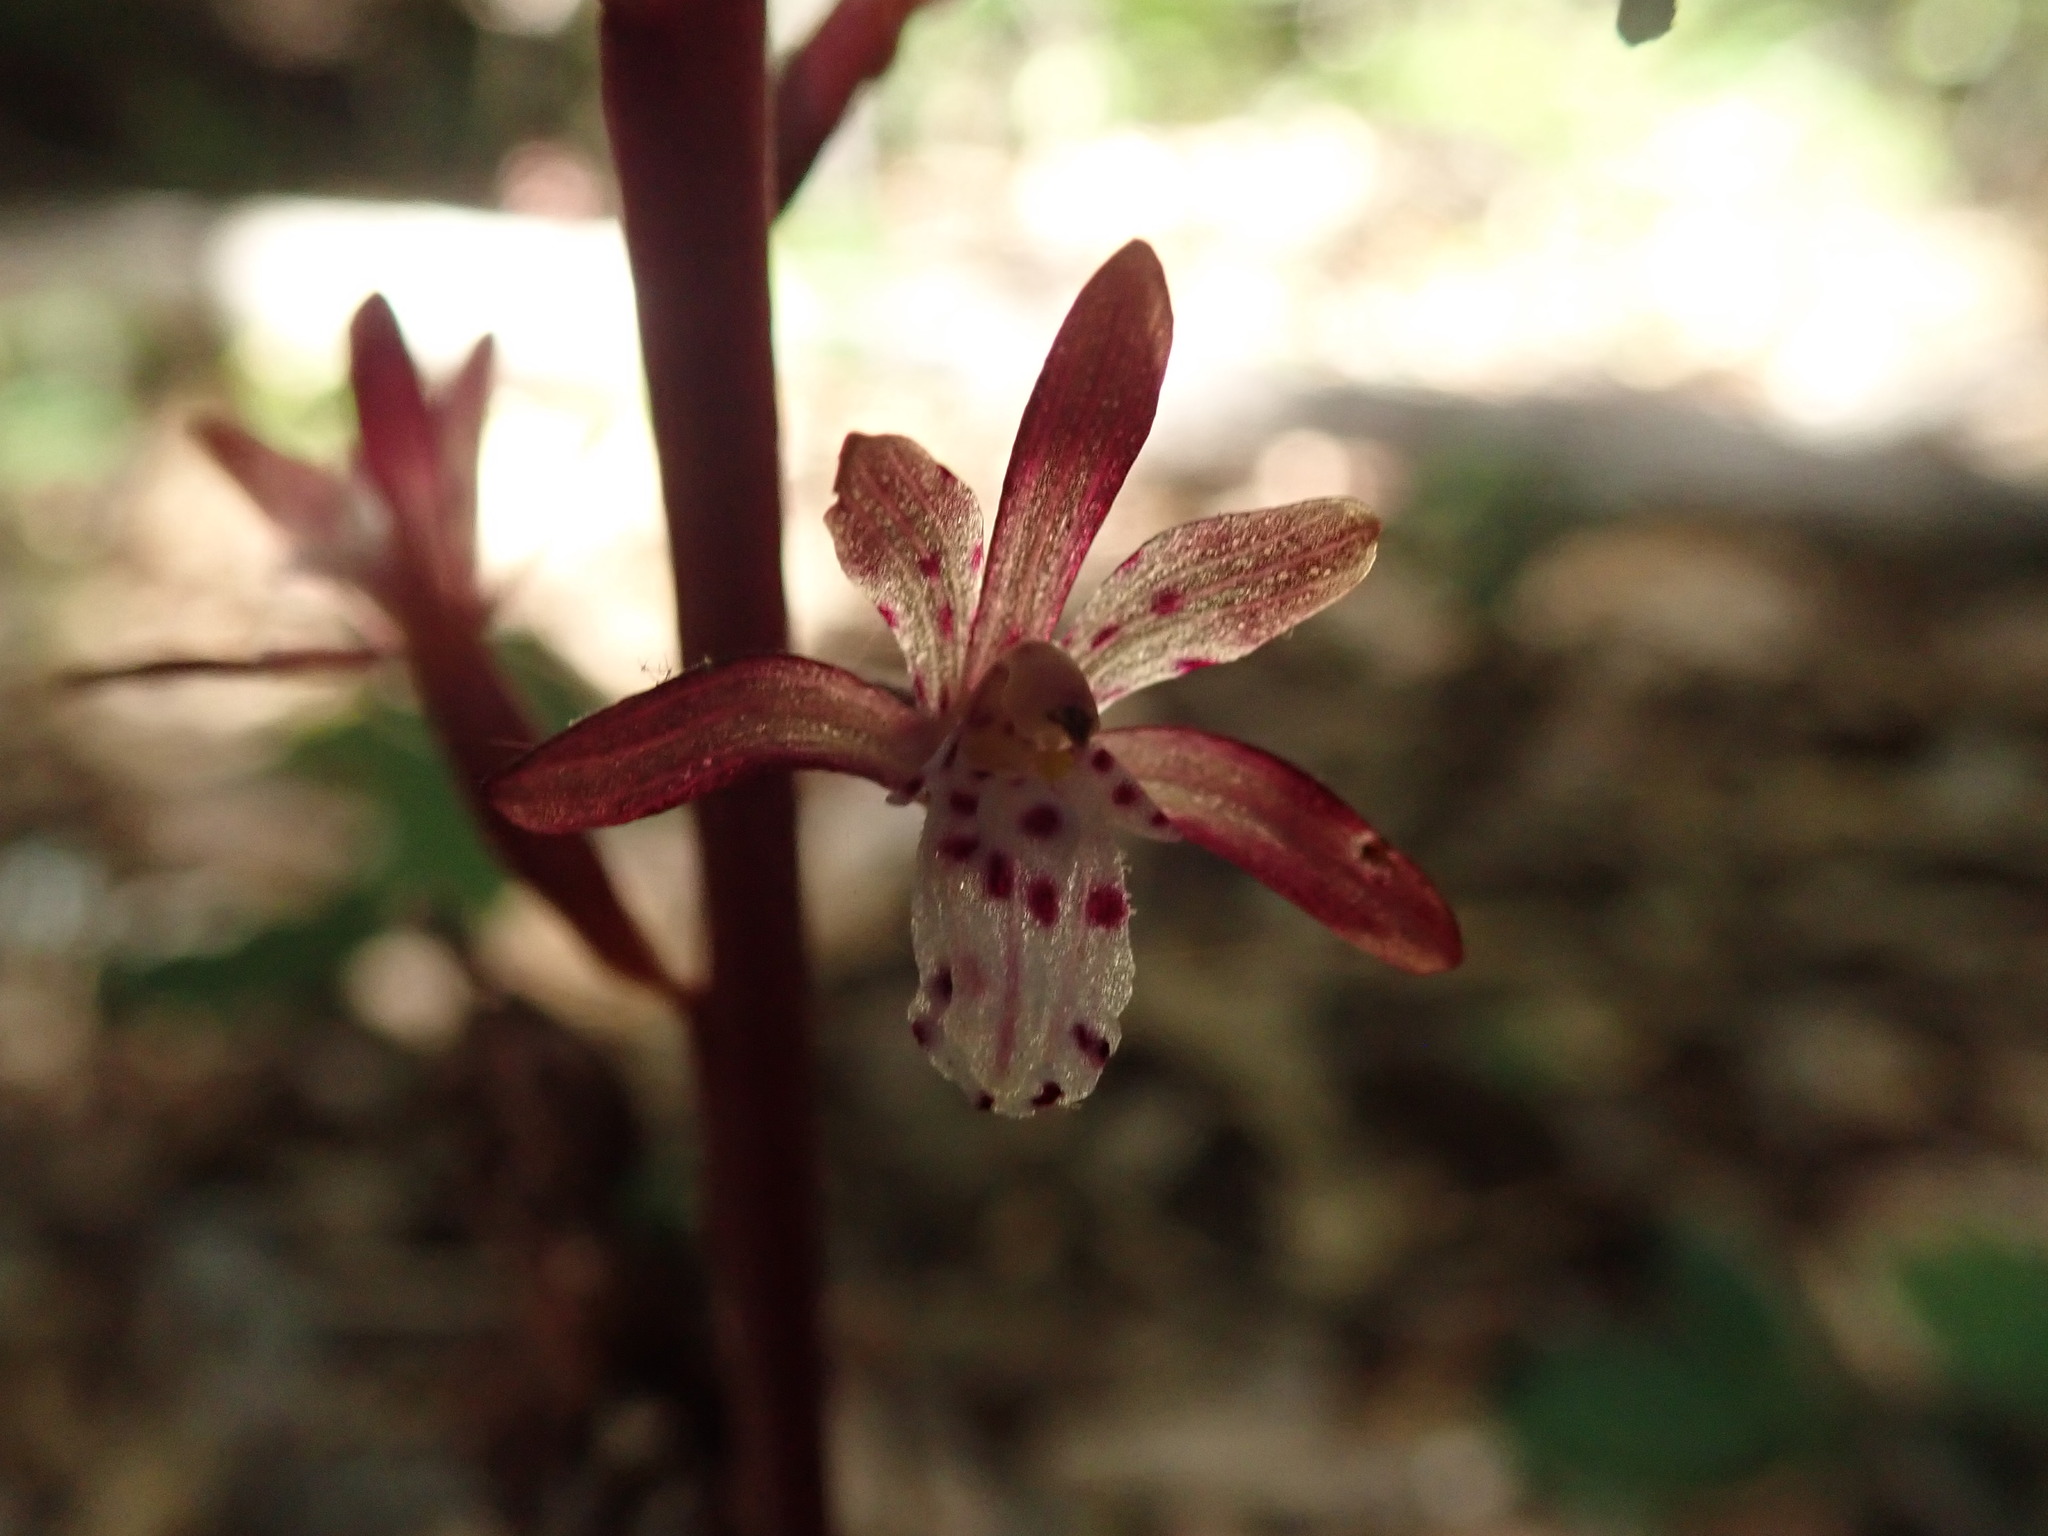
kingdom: Plantae
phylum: Tracheophyta
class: Liliopsida
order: Asparagales
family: Orchidaceae
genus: Corallorhiza
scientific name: Corallorhiza maculata
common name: Spotted coralroot
